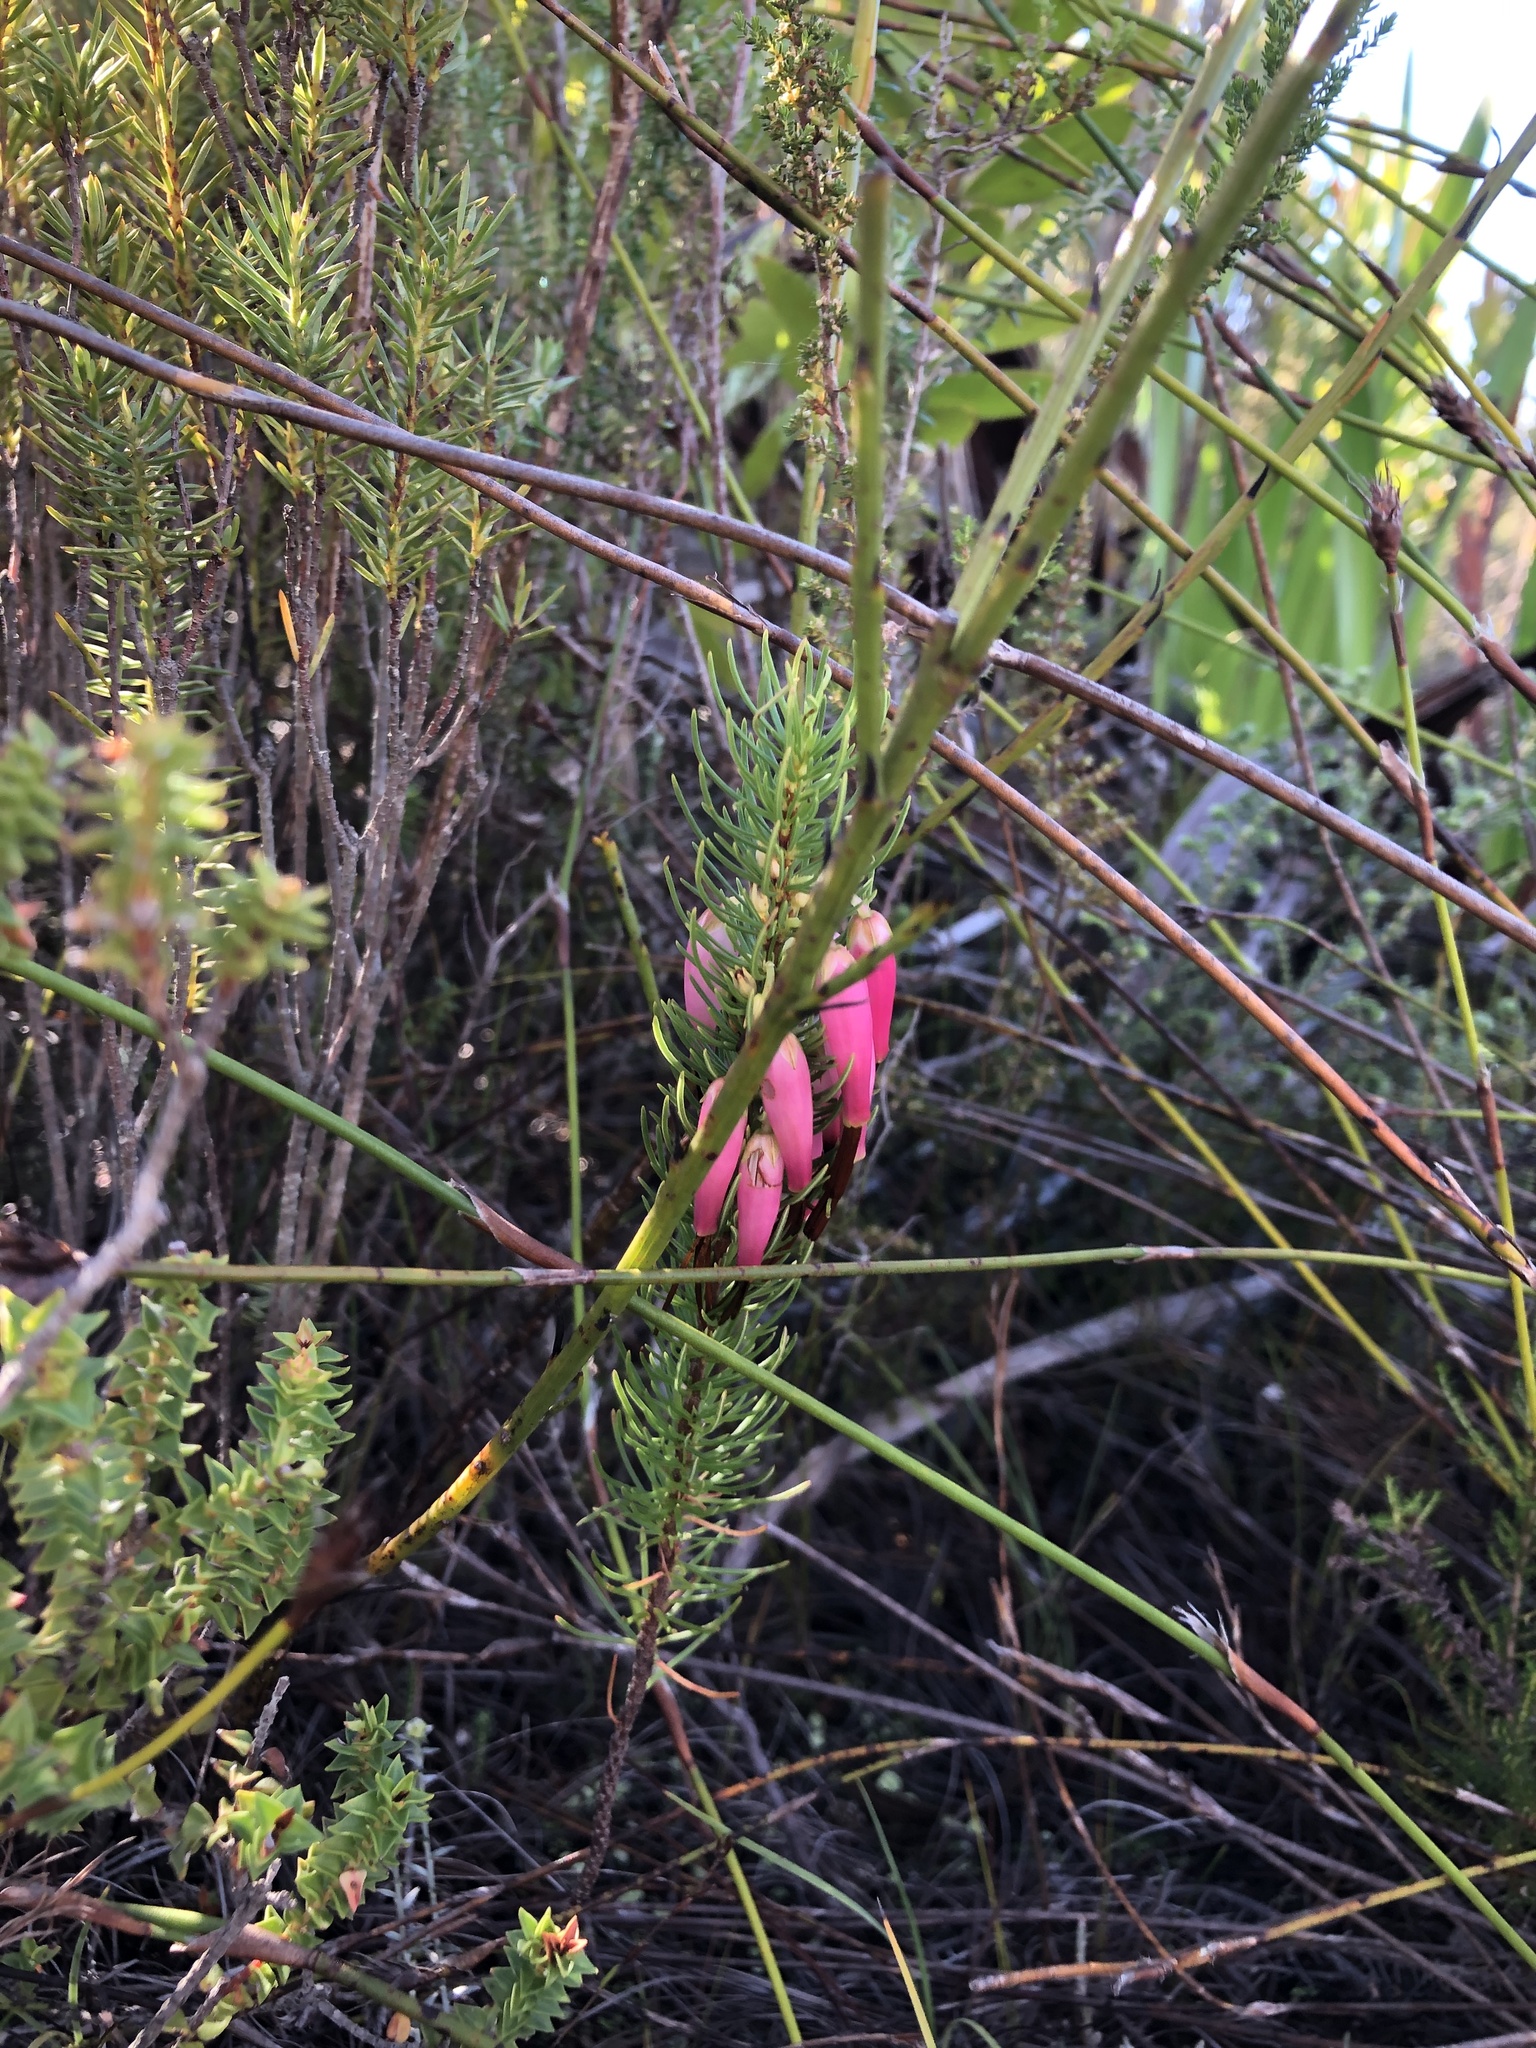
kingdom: Plantae
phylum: Tracheophyta
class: Magnoliopsida
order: Ericales
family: Ericaceae
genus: Erica
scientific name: Erica plukenetii
